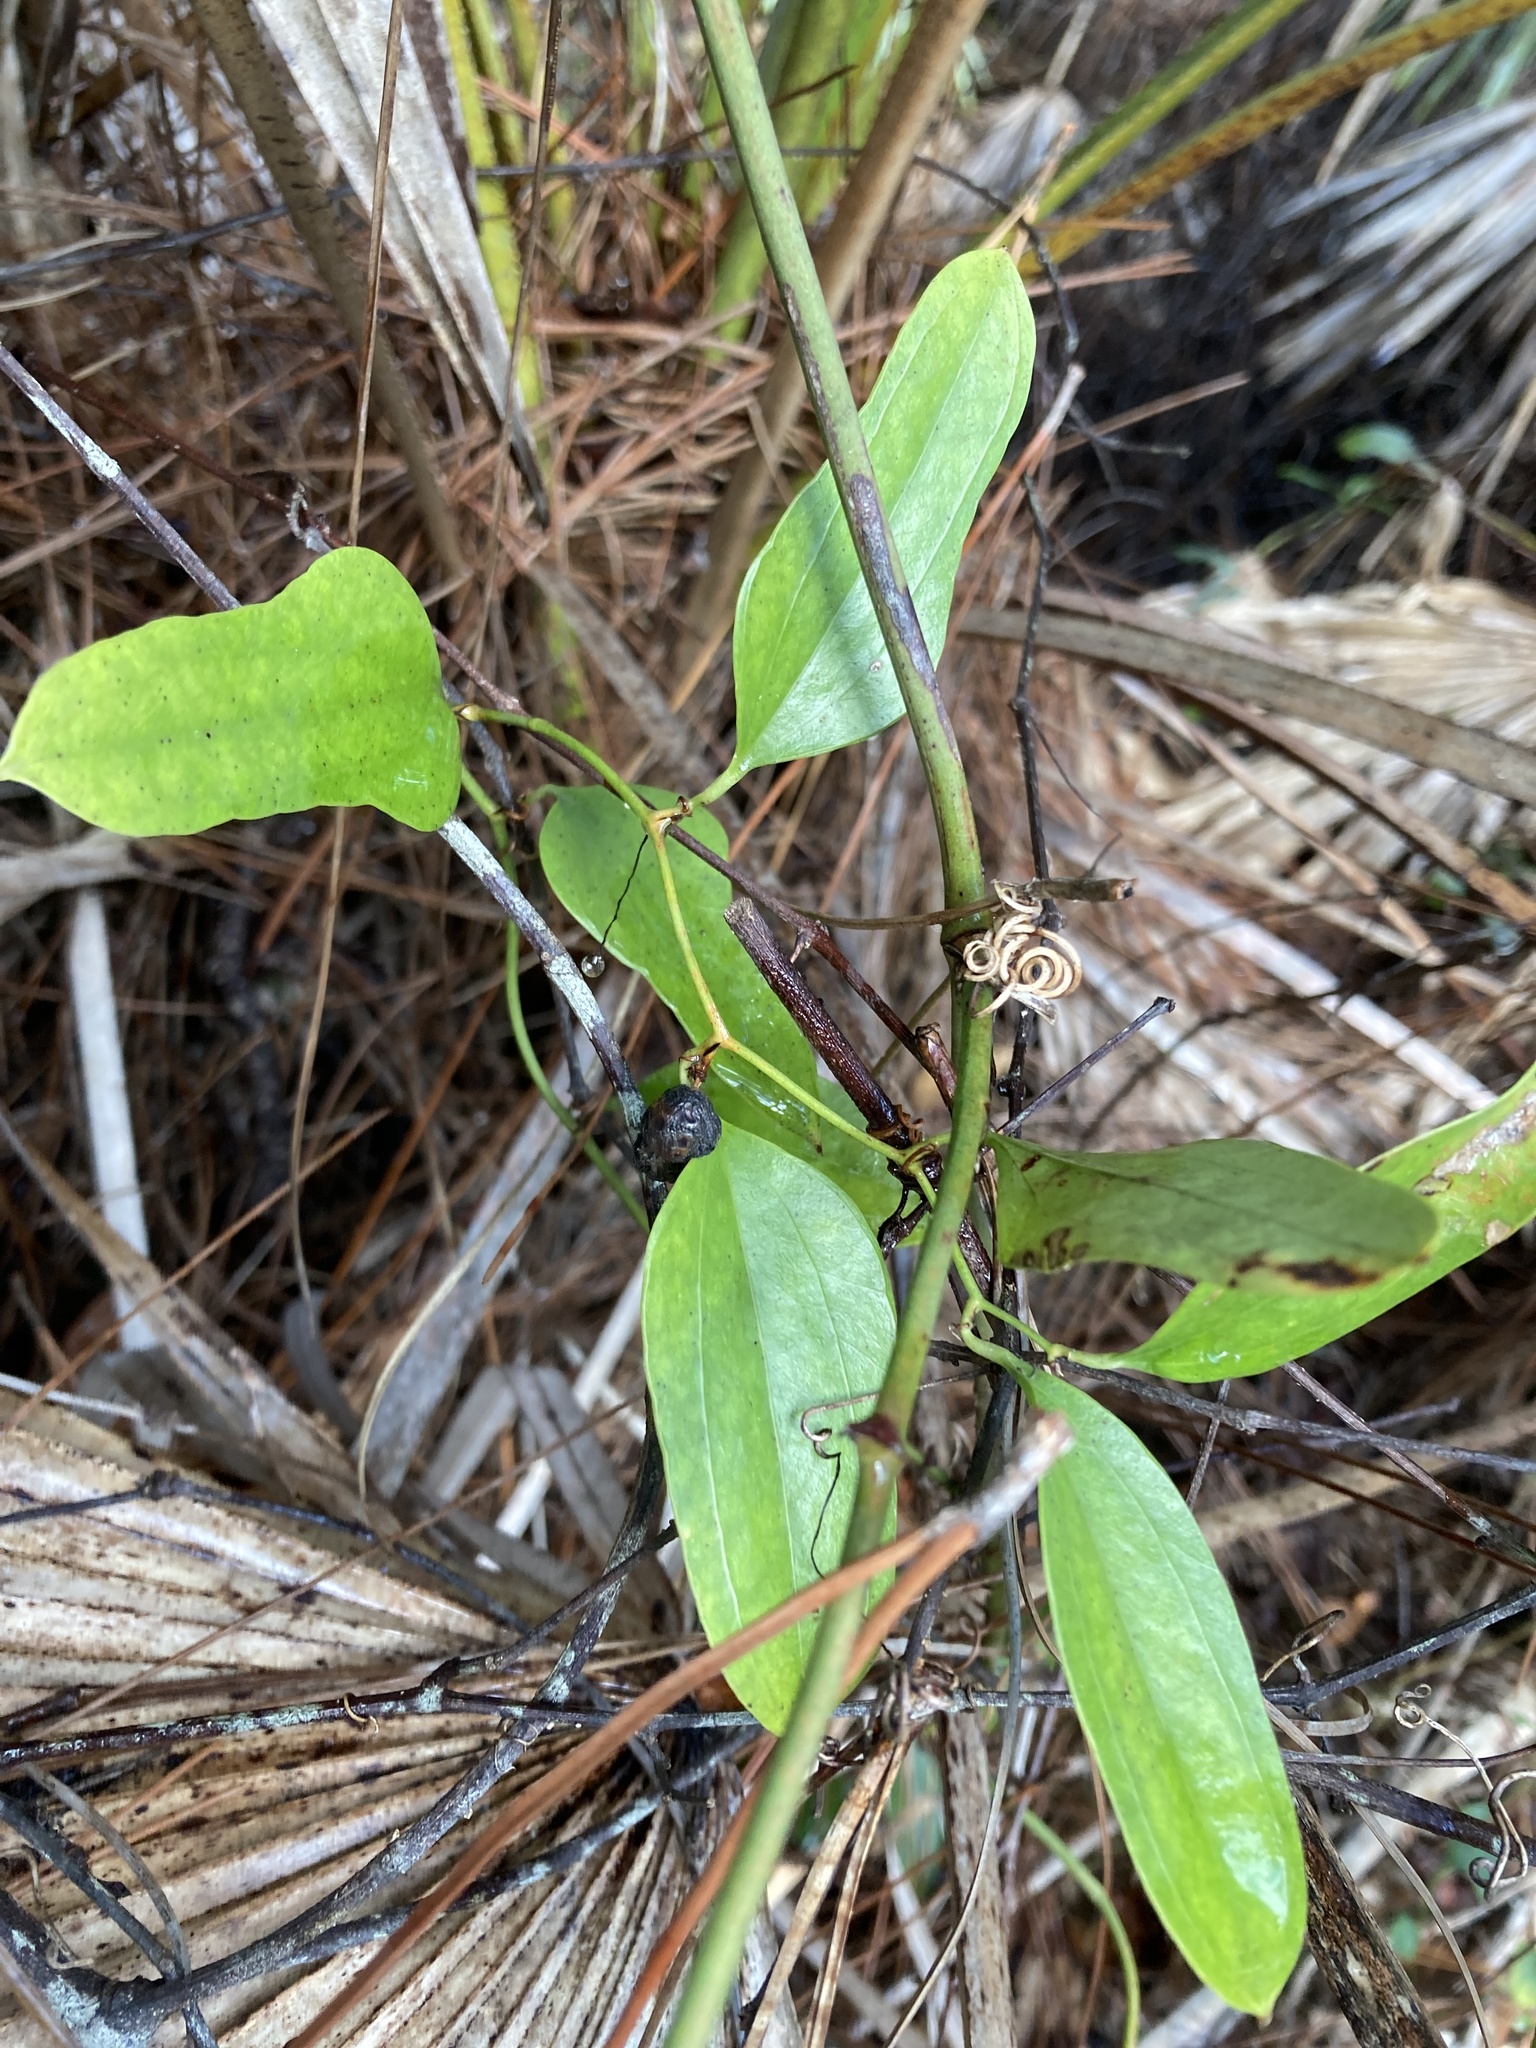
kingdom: Plantae
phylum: Tracheophyta
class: Liliopsida
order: Liliales
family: Smilacaceae
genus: Smilax
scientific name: Smilax auriculata
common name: Wild bamboo
